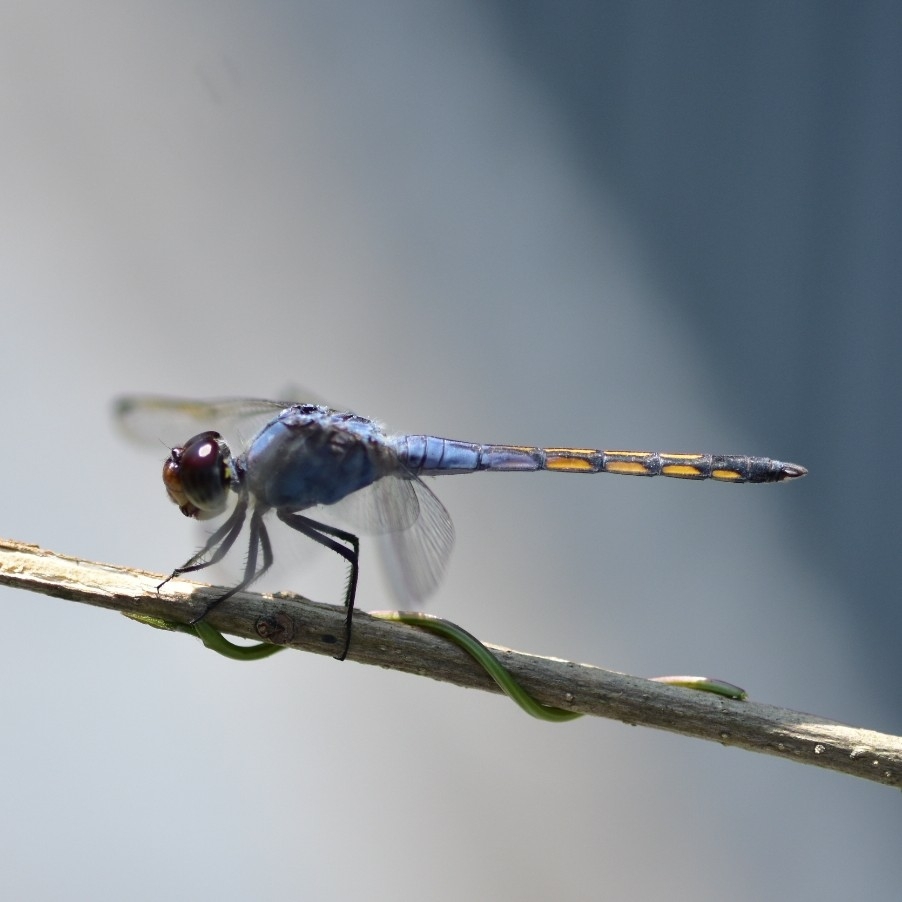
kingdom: Animalia
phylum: Arthropoda
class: Insecta
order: Odonata
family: Libellulidae
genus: Potamarcha
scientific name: Potamarcha congener
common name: Blue chaser
